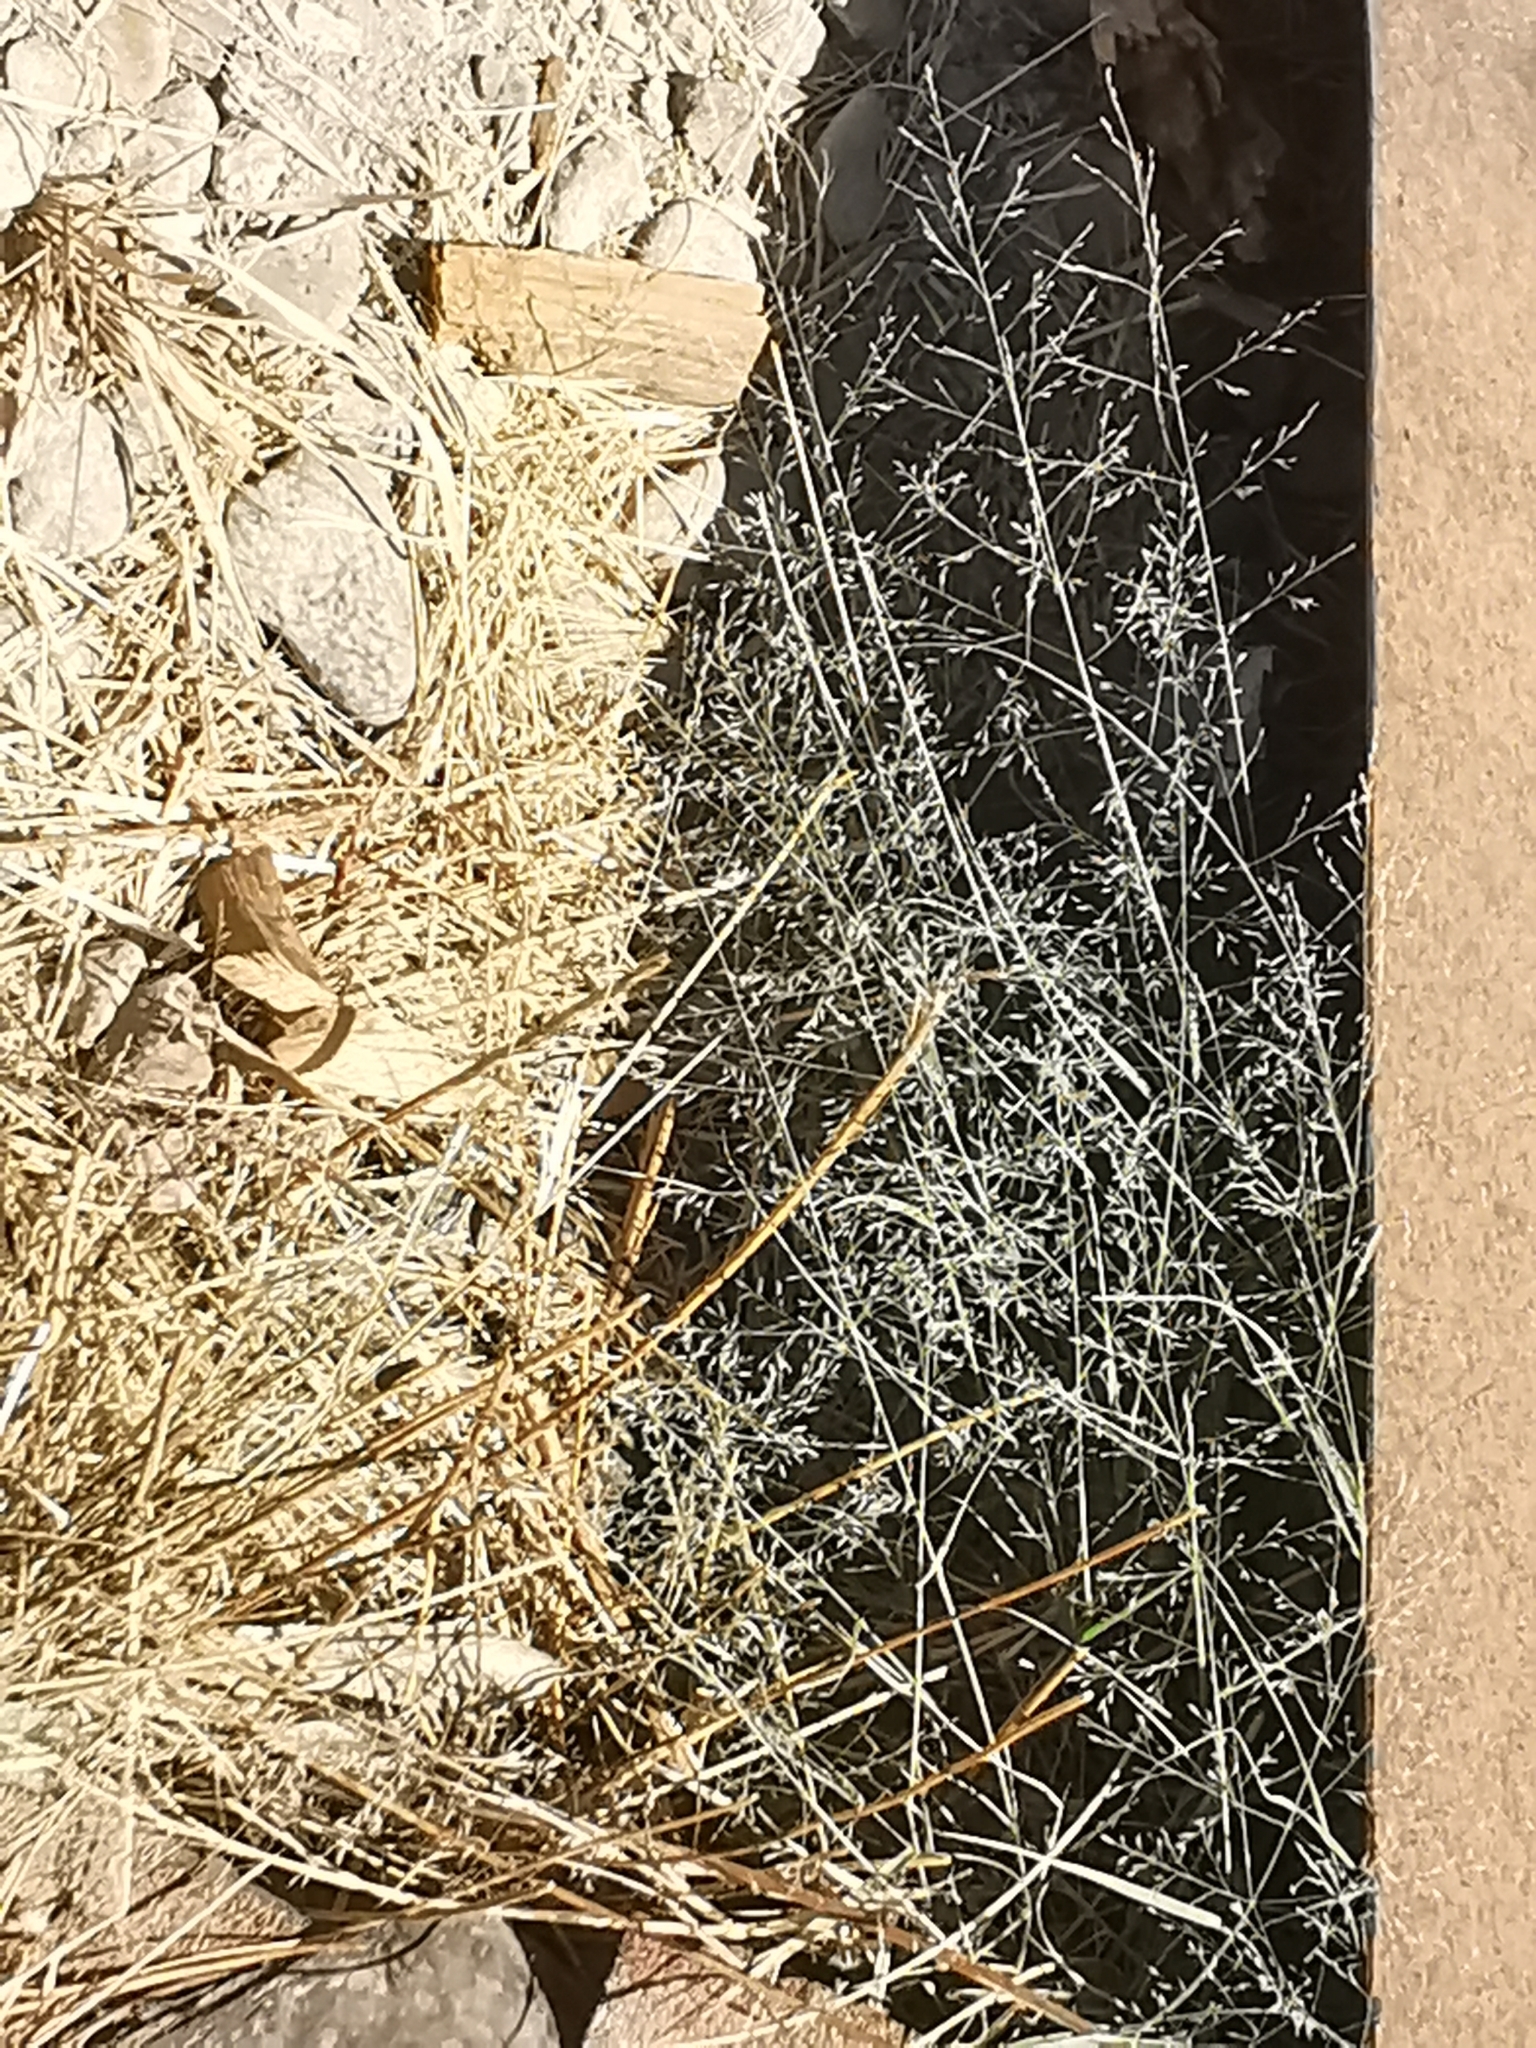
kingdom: Plantae
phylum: Tracheophyta
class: Liliopsida
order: Poales
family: Poaceae
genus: Eragrostis
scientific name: Eragrostis lehmanniana
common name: Lehmann lovegrass
